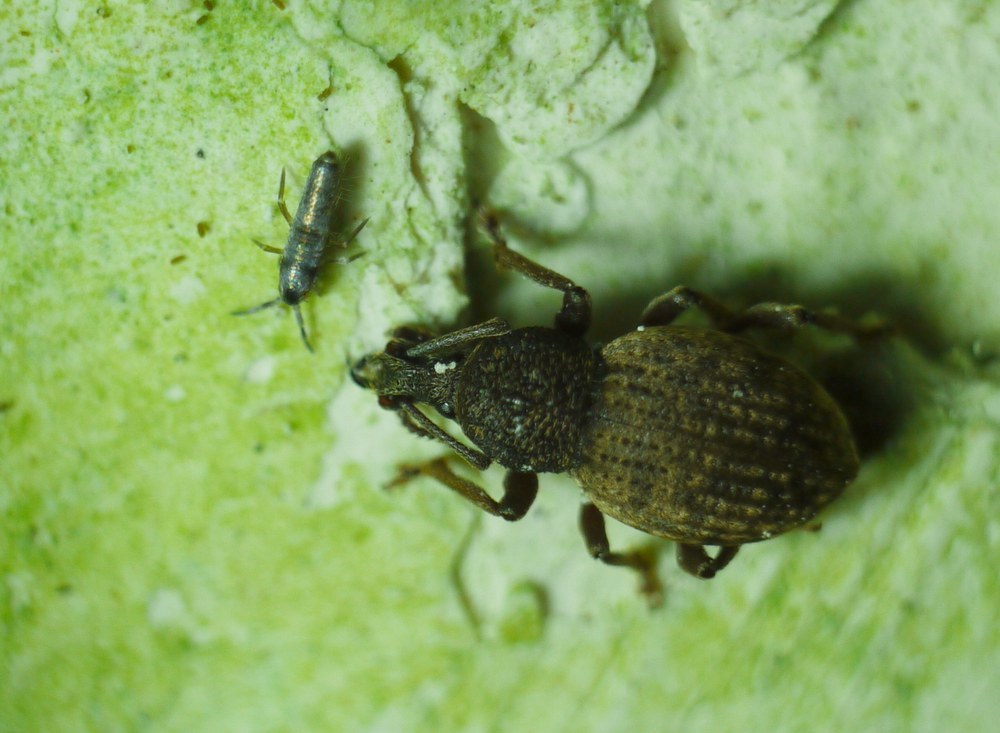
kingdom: Animalia
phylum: Arthropoda
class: Insecta
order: Coleoptera
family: Curculionidae
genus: Otiorhynchus
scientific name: Otiorhynchus raucus
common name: Weevil
